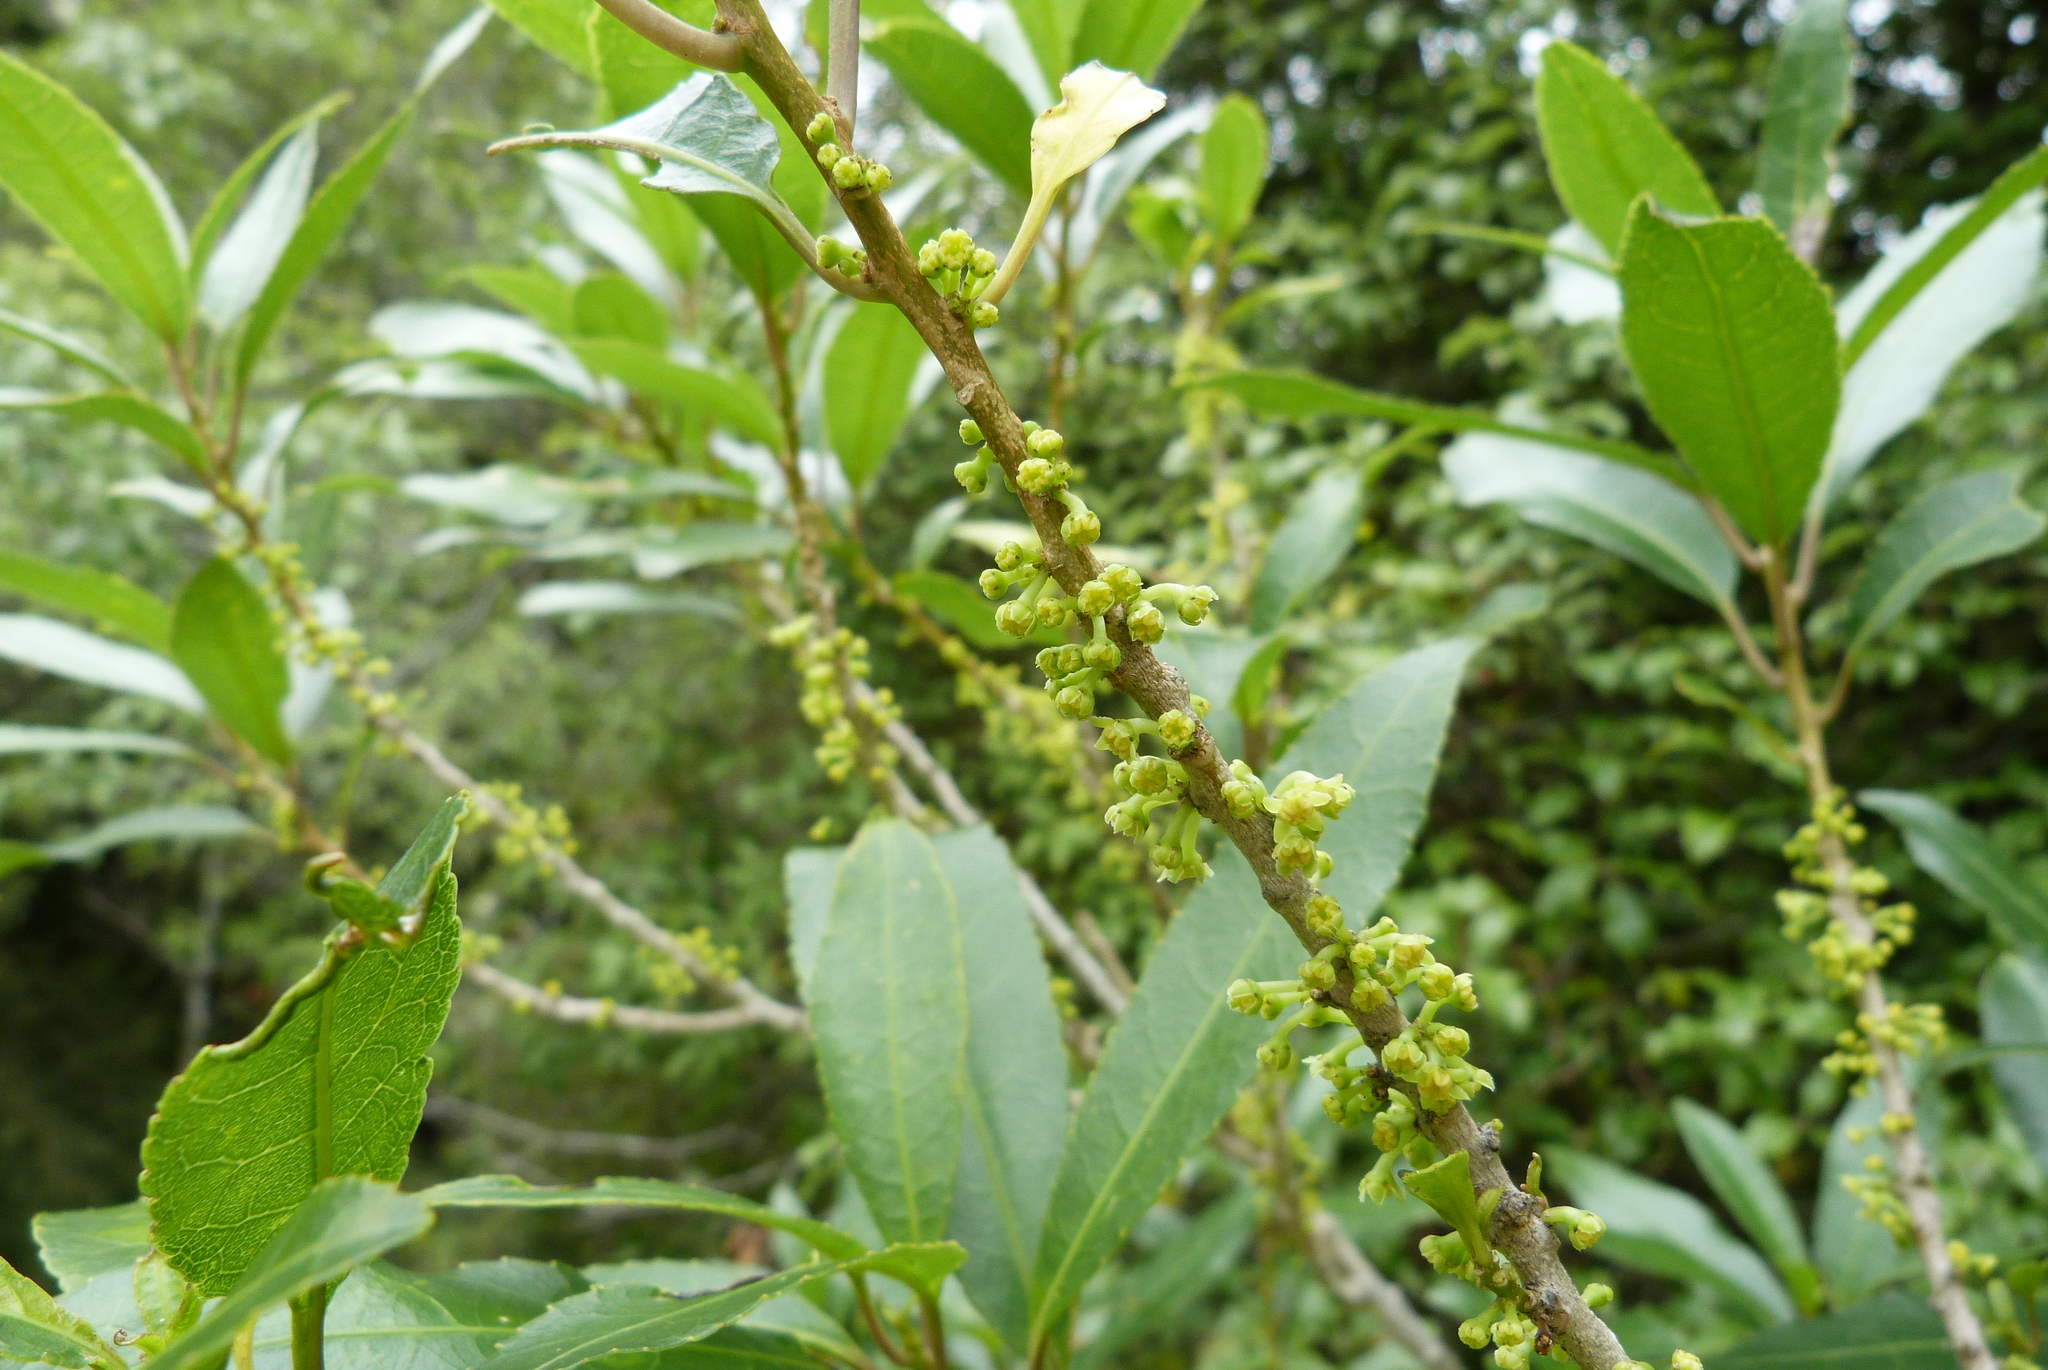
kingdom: Plantae
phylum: Tracheophyta
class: Magnoliopsida
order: Malpighiales
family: Violaceae
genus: Melicytus
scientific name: Melicytus ramiflorus
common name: Mahoe
